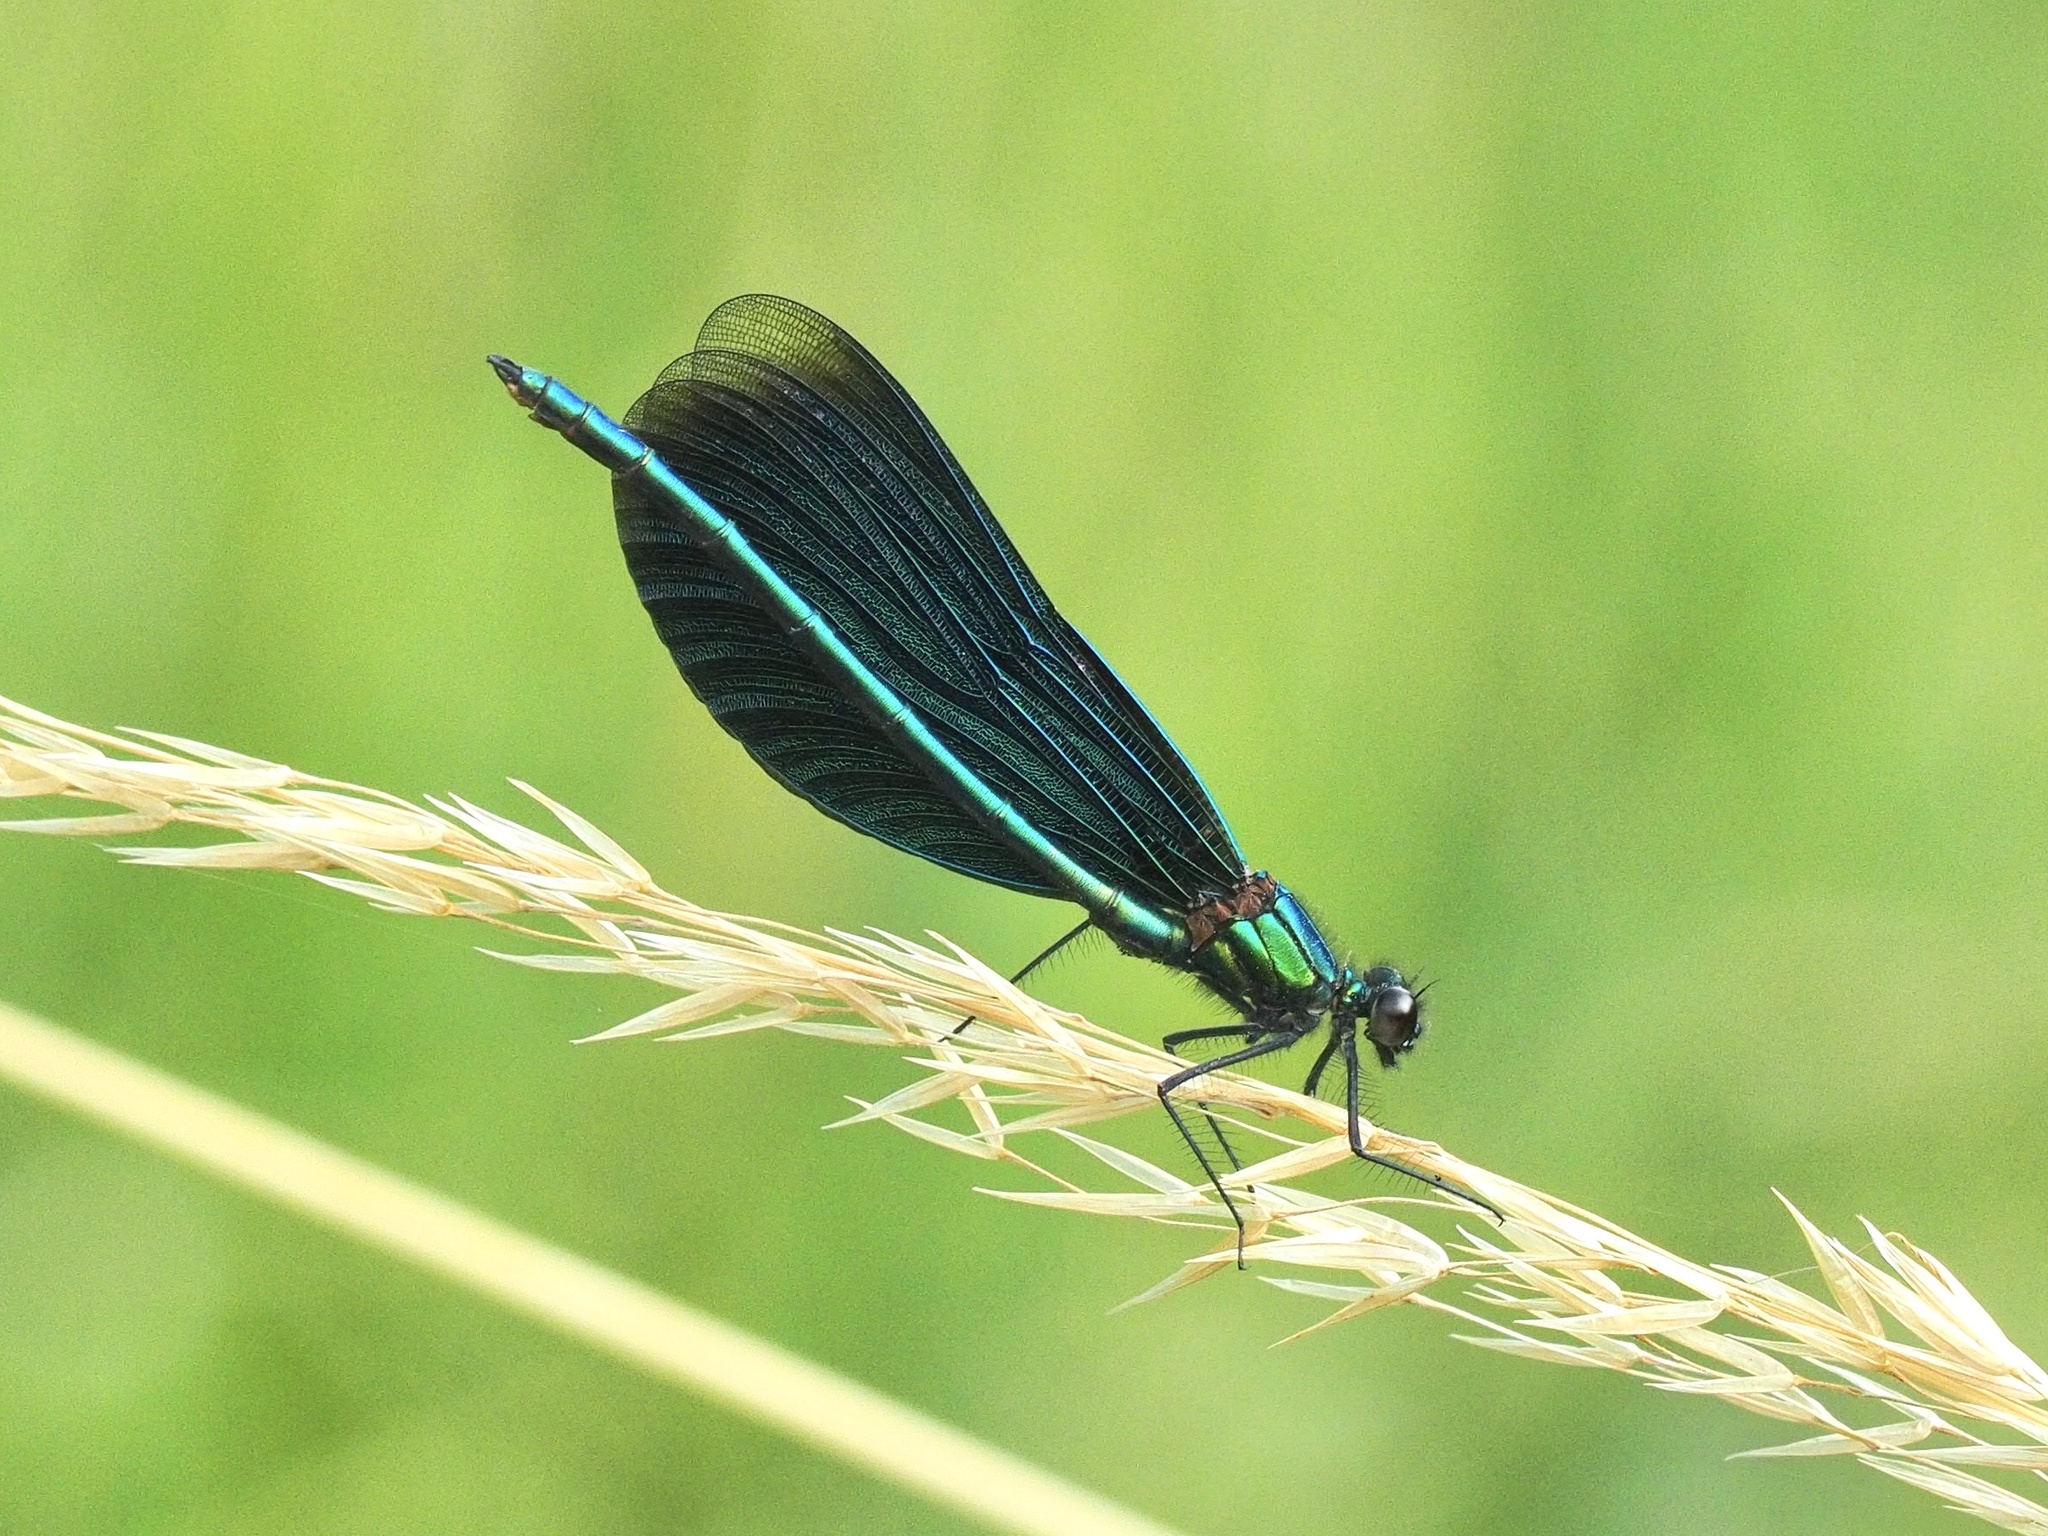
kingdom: Animalia
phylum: Arthropoda
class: Insecta
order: Odonata
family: Calopterygidae
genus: Calopteryx
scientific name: Calopteryx virgo
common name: Beautiful demoiselle
